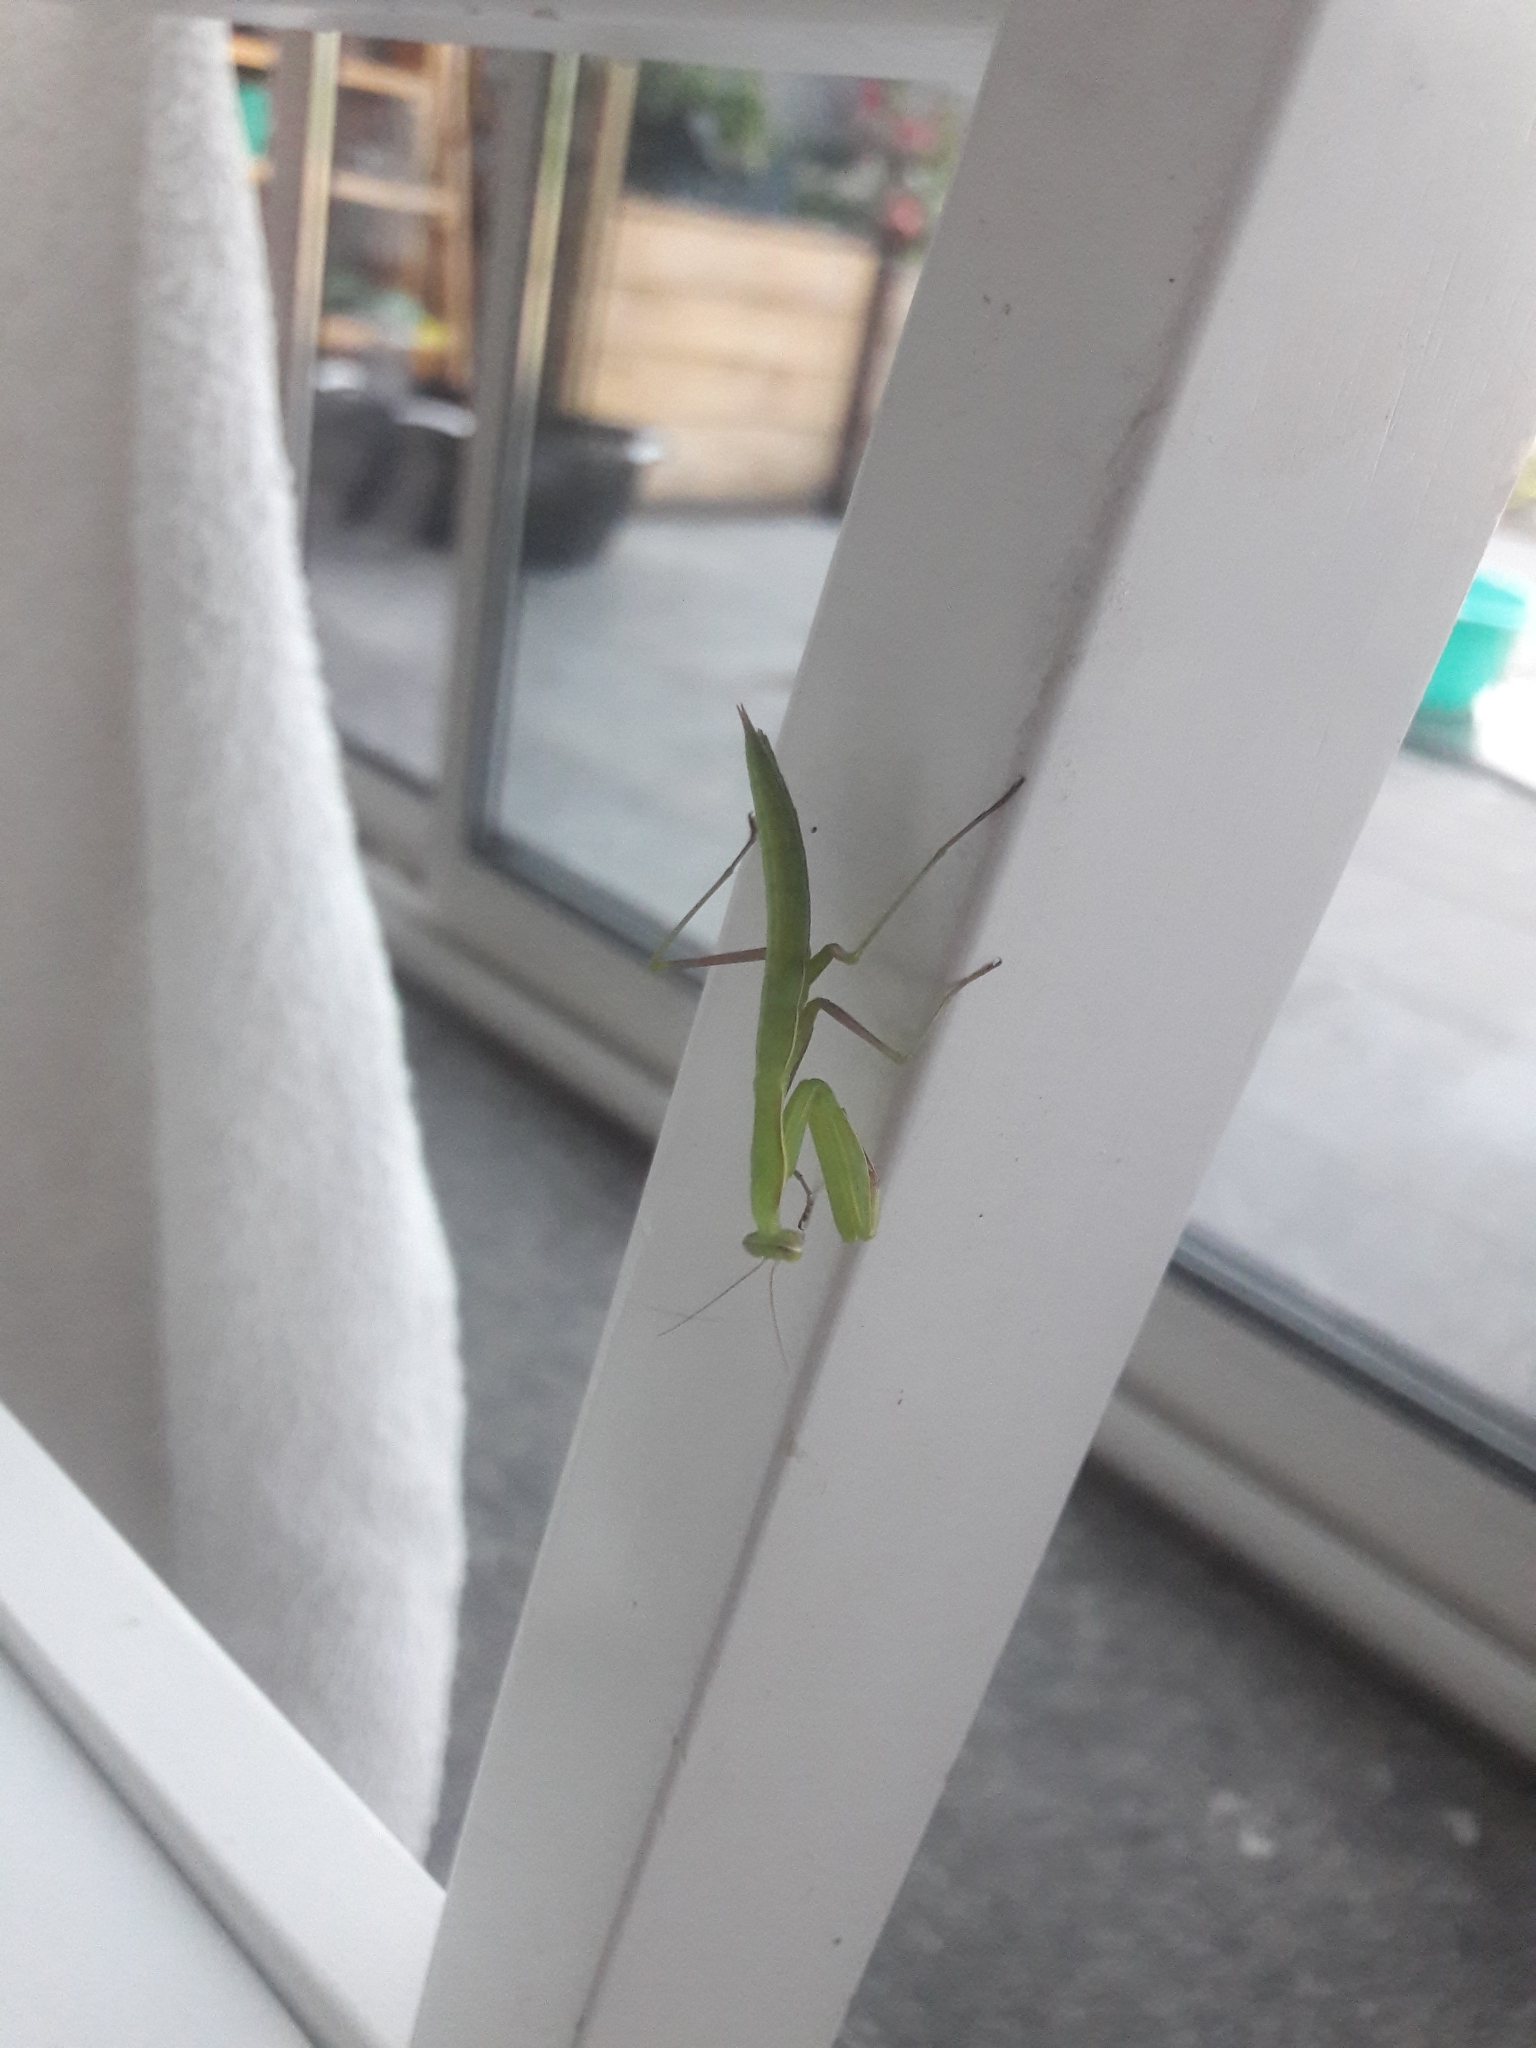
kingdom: Animalia
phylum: Arthropoda
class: Insecta
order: Mantodea
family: Mantidae
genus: Mantis
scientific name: Mantis religiosa
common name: Praying mantis
